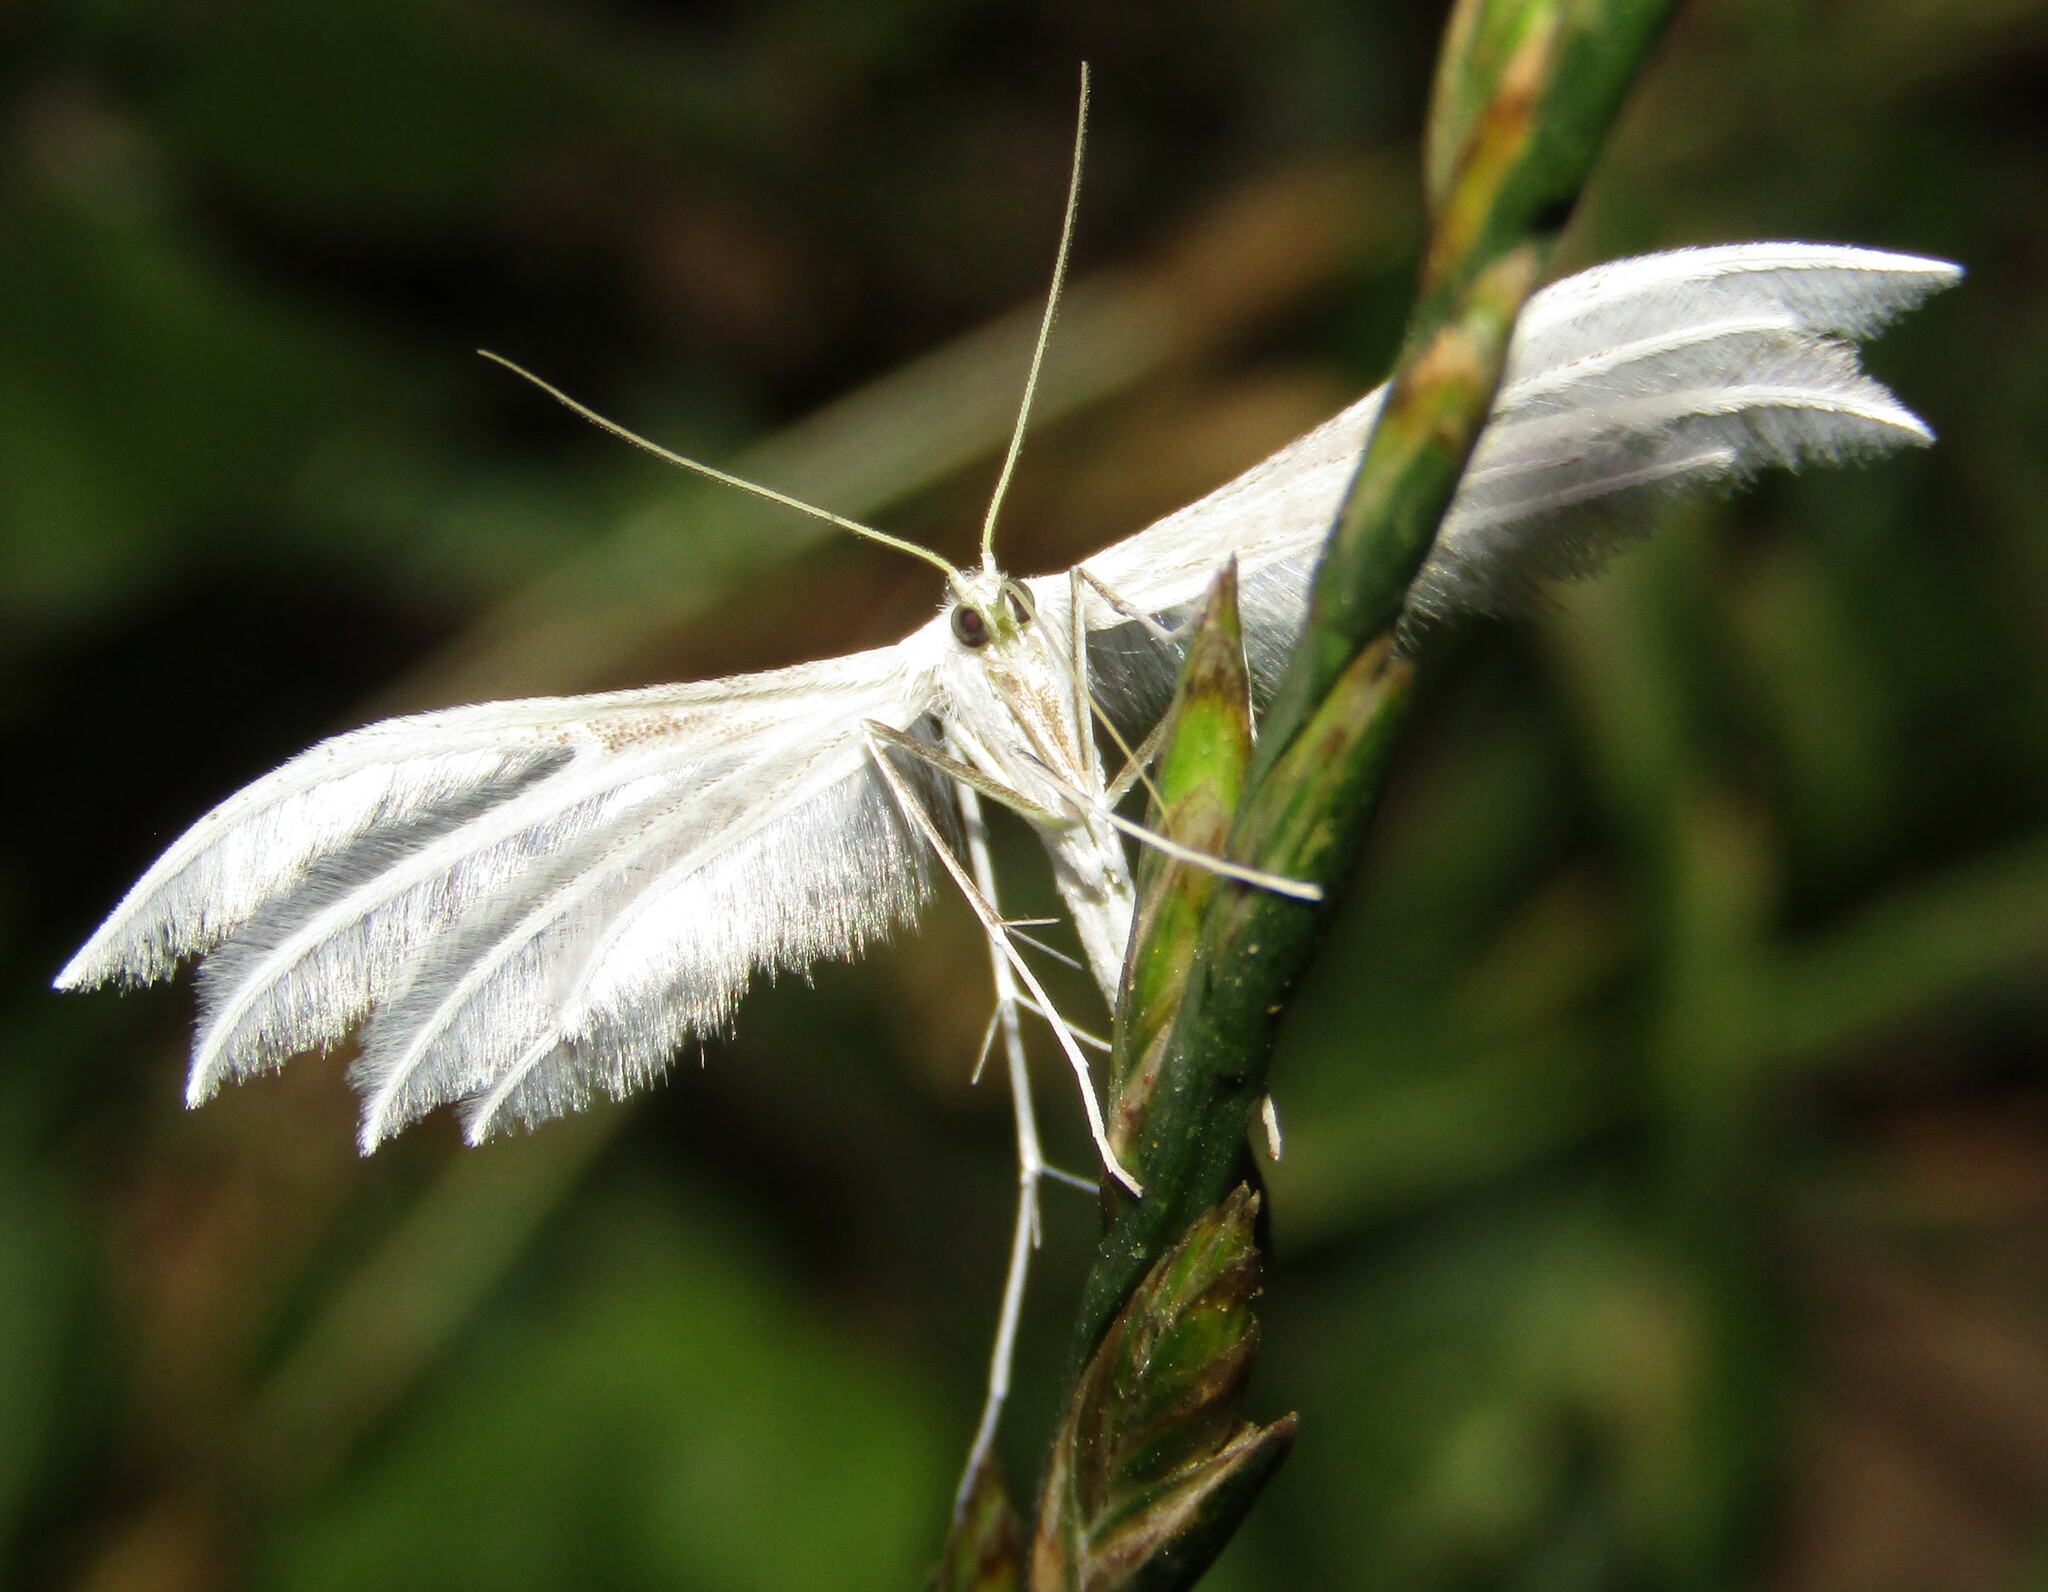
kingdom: Animalia
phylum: Arthropoda
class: Insecta
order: Lepidoptera
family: Pterophoridae
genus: Pterophorus
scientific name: Pterophorus pentadactyla
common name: White plume moth
